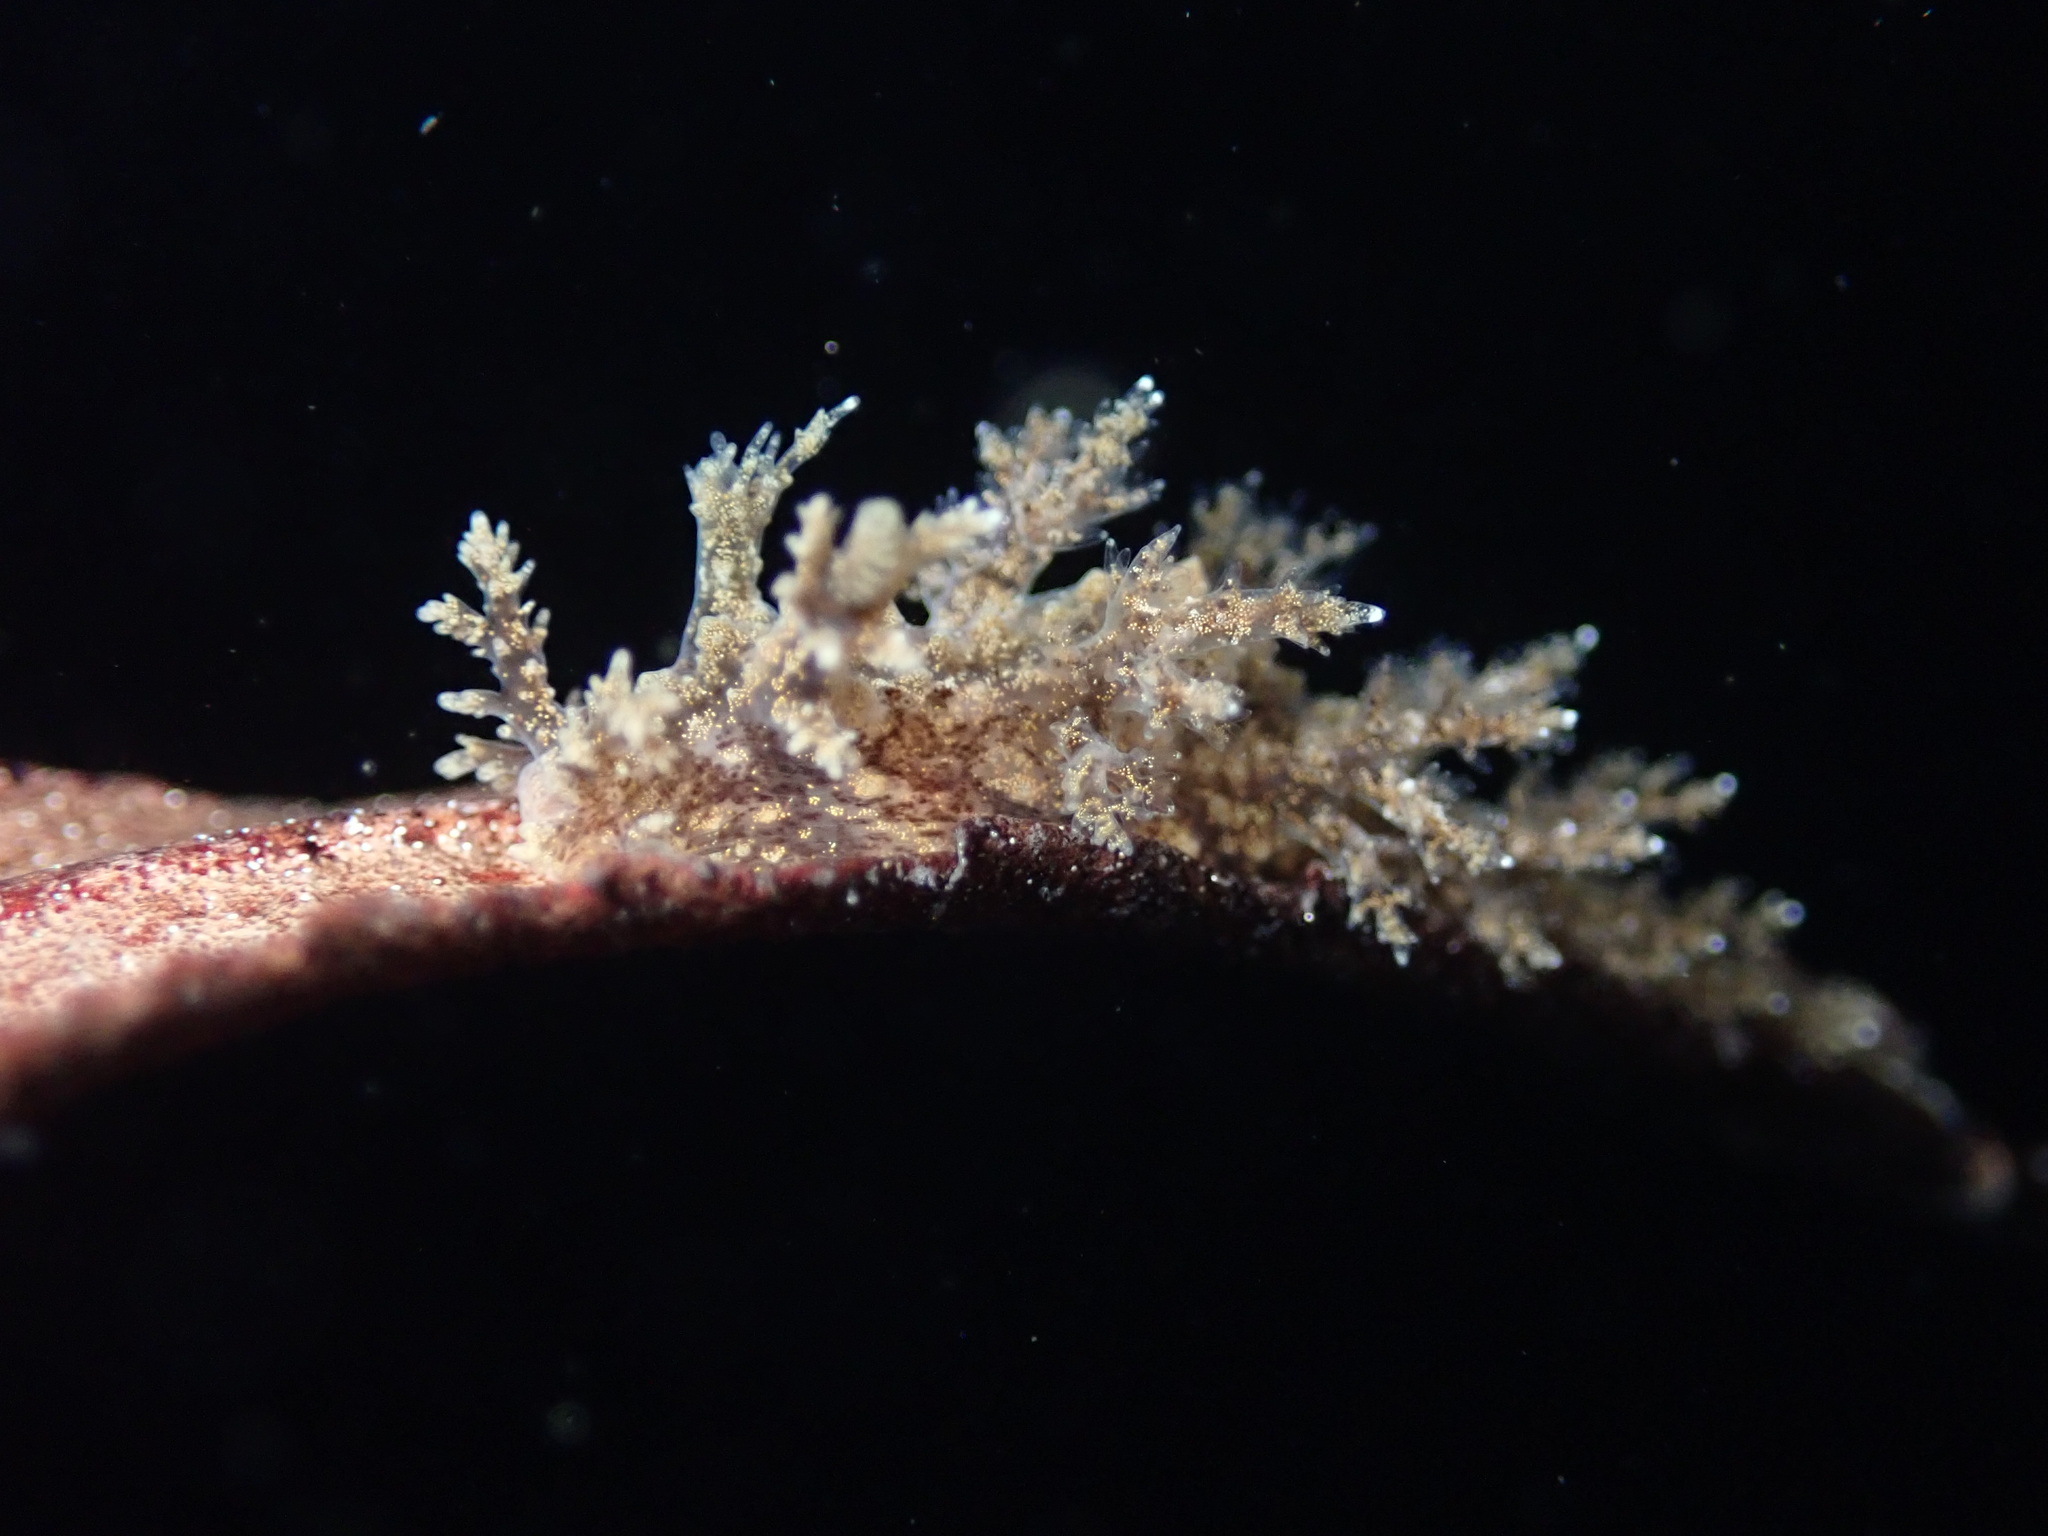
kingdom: Animalia
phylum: Mollusca
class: Gastropoda
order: Nudibranchia
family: Dendronotidae
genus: Dendronotus
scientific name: Dendronotus venustus
